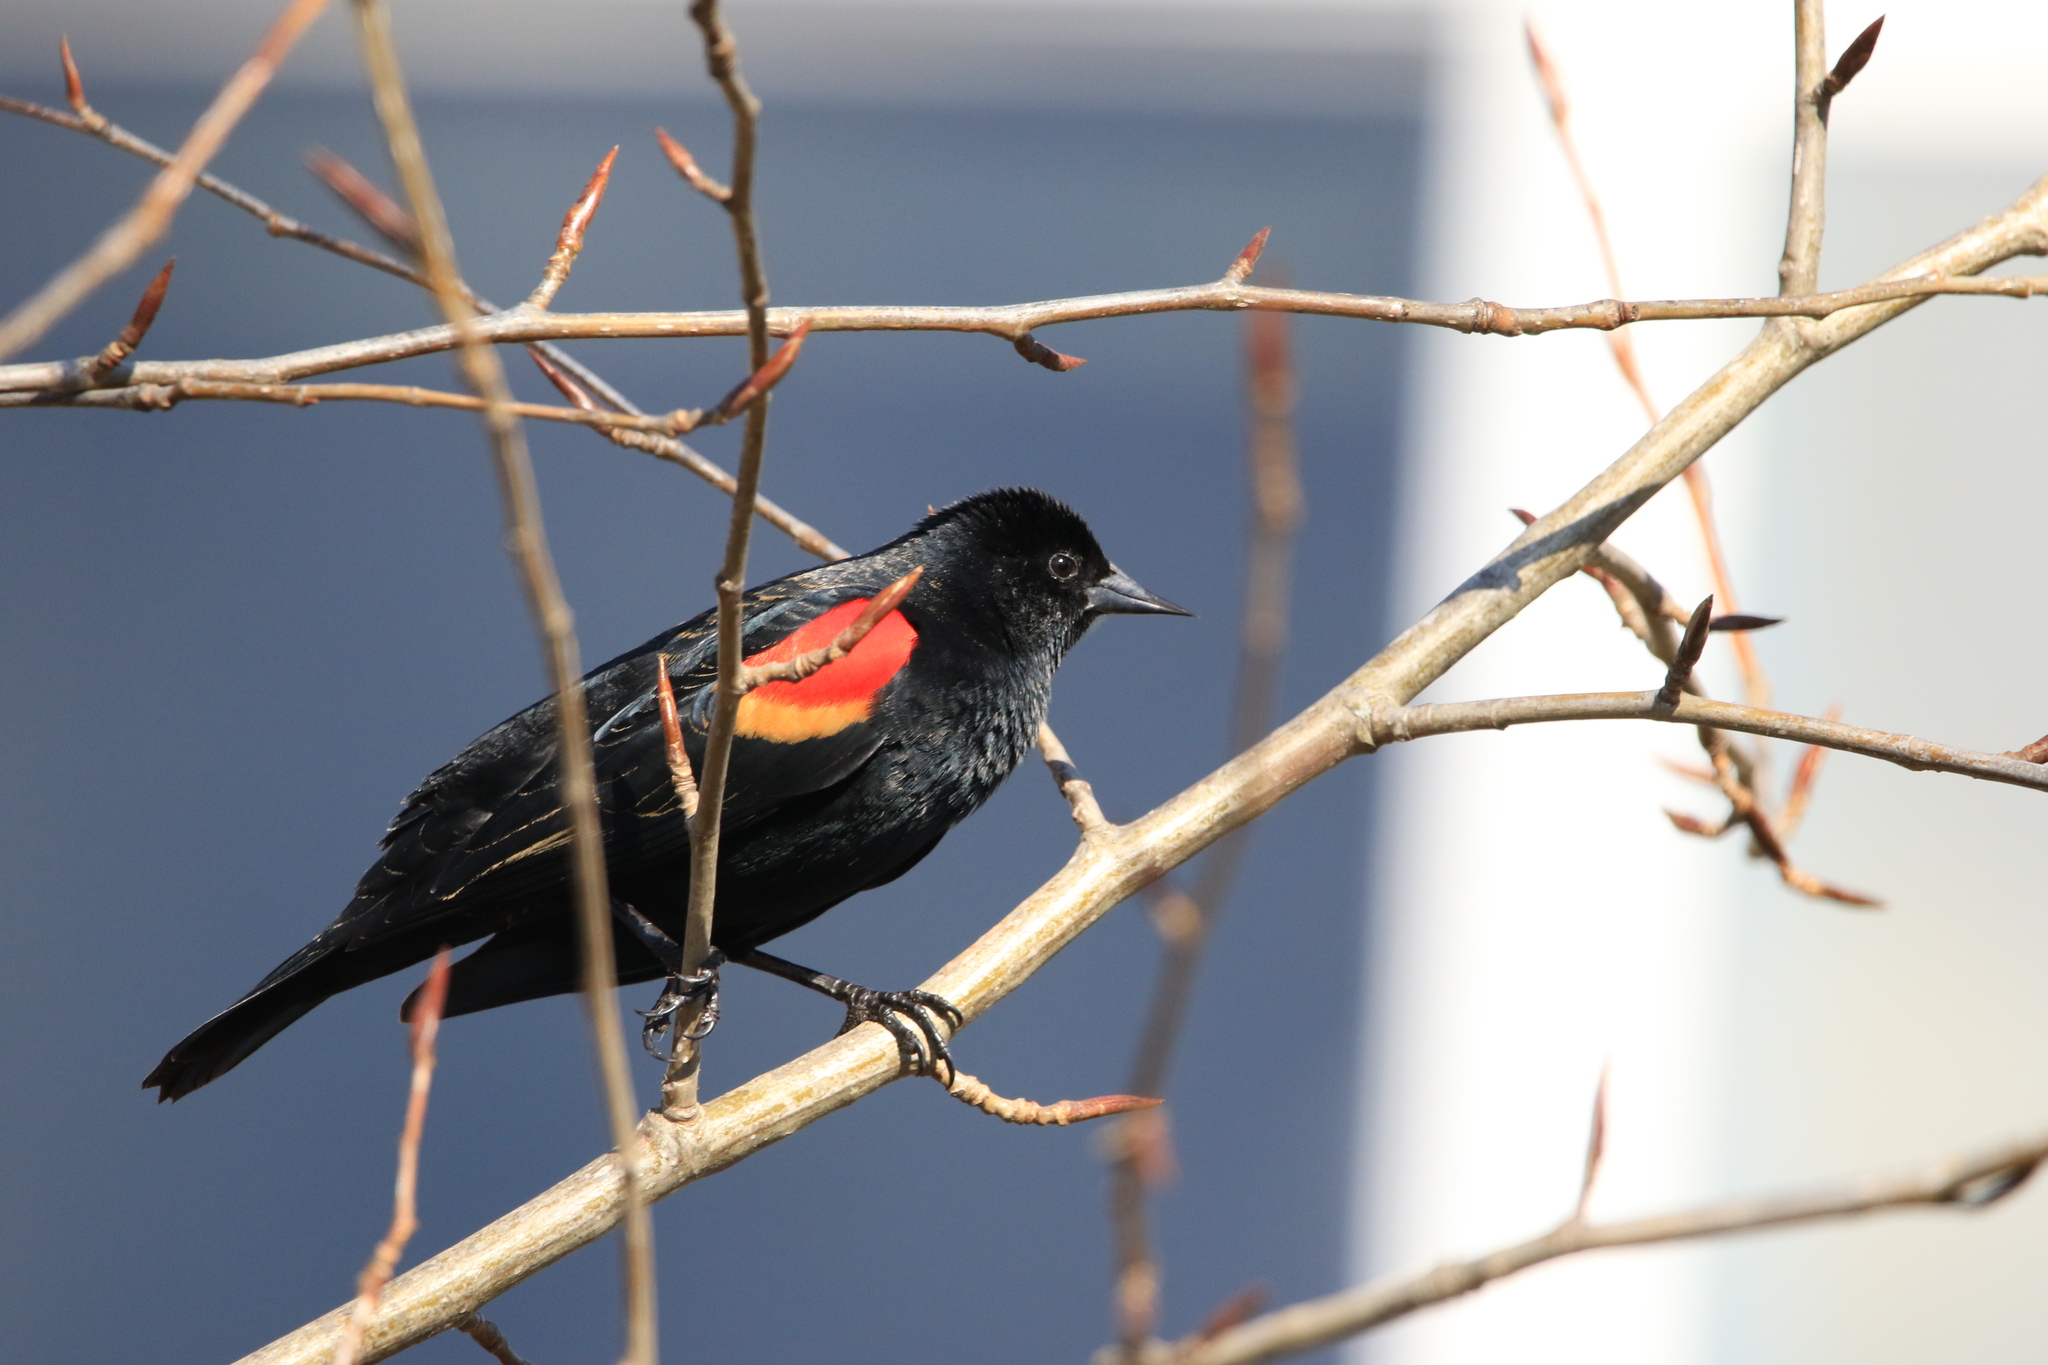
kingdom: Animalia
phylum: Chordata
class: Aves
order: Passeriformes
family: Icteridae
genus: Agelaius
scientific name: Agelaius phoeniceus
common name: Red-winged blackbird
